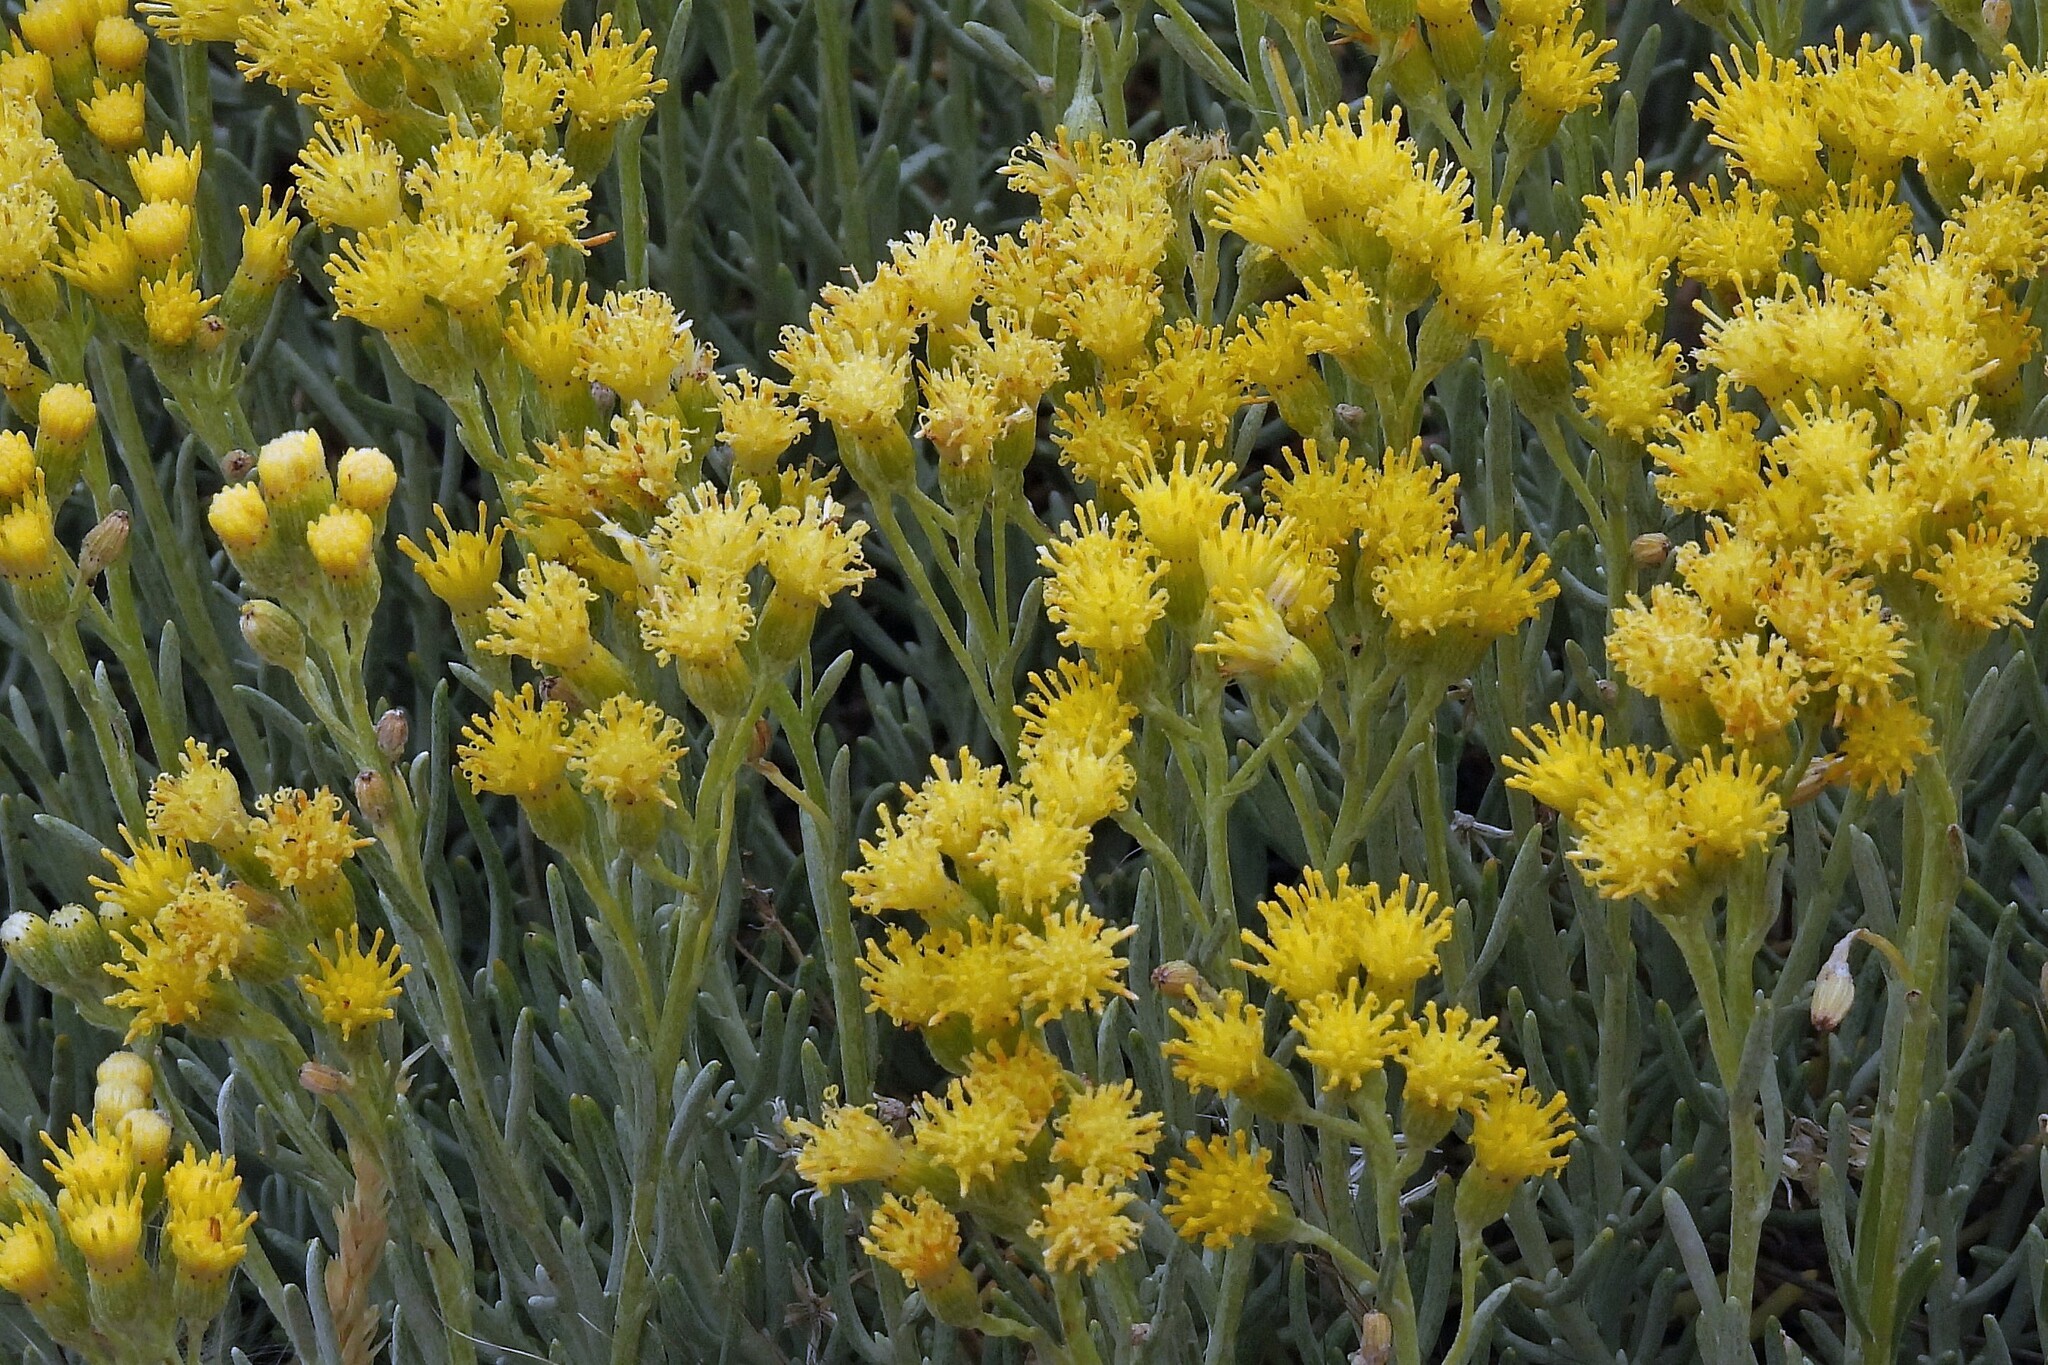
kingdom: Plantae
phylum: Tracheophyta
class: Magnoliopsida
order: Asterales
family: Asteraceae
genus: Senecio
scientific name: Senecio filaginoides
